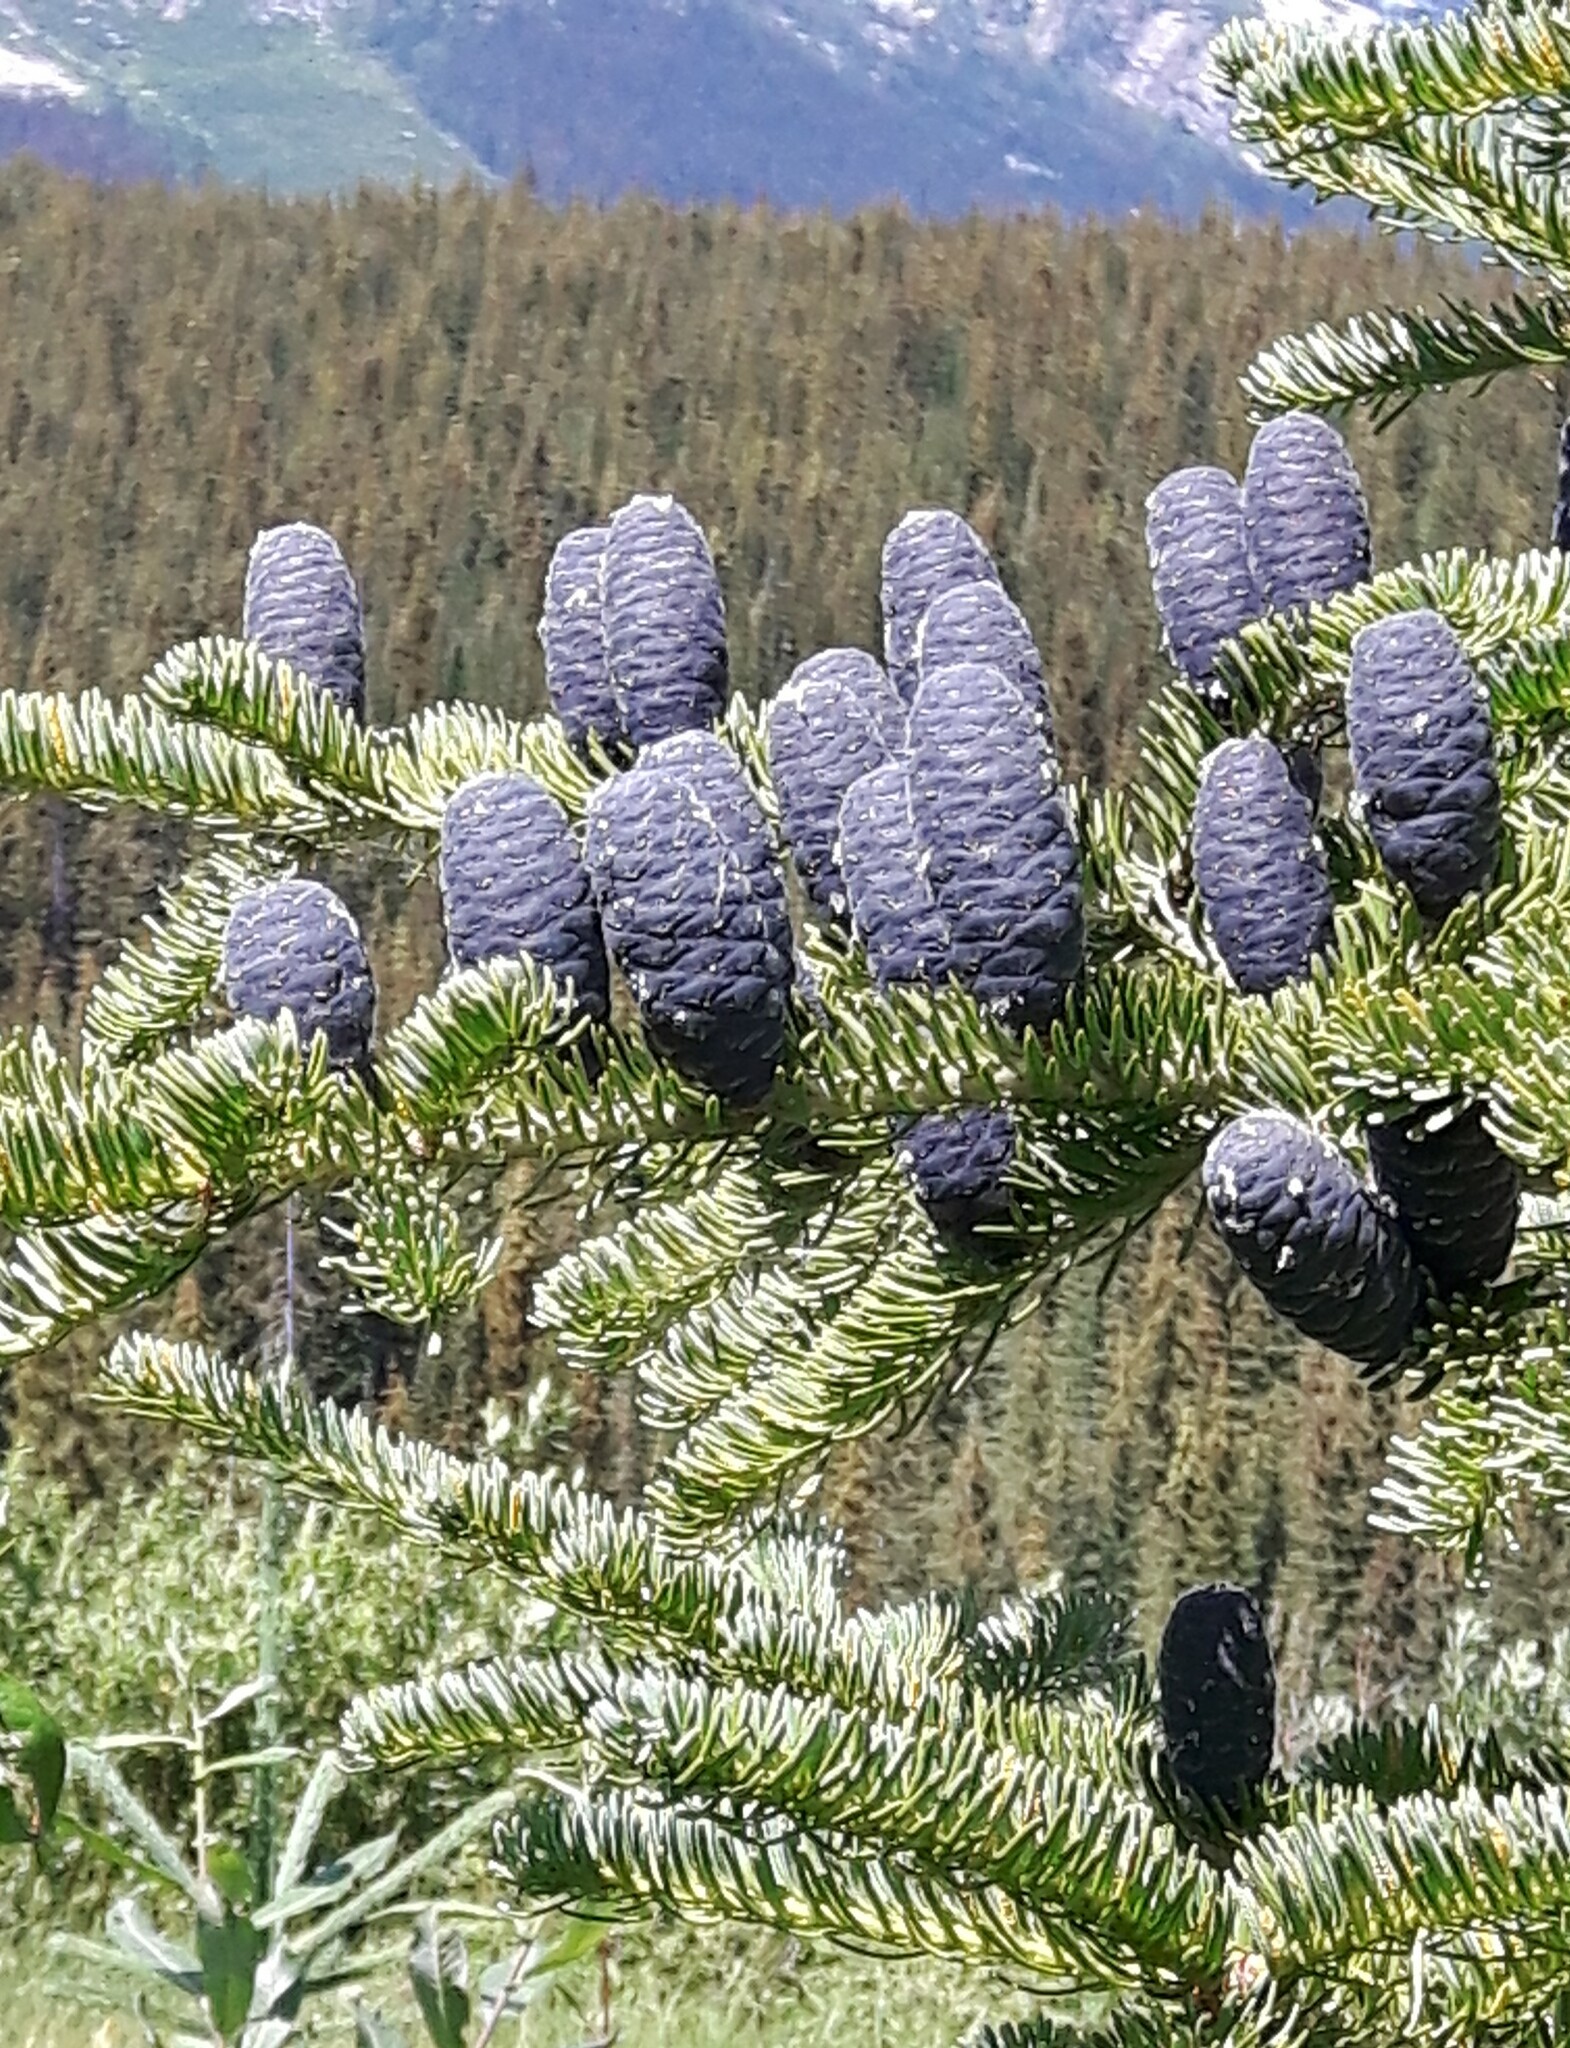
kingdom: Plantae
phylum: Tracheophyta
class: Pinopsida
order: Pinales
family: Pinaceae
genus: Abies
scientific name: Abies lasiocarpa
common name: Subalpine fir
